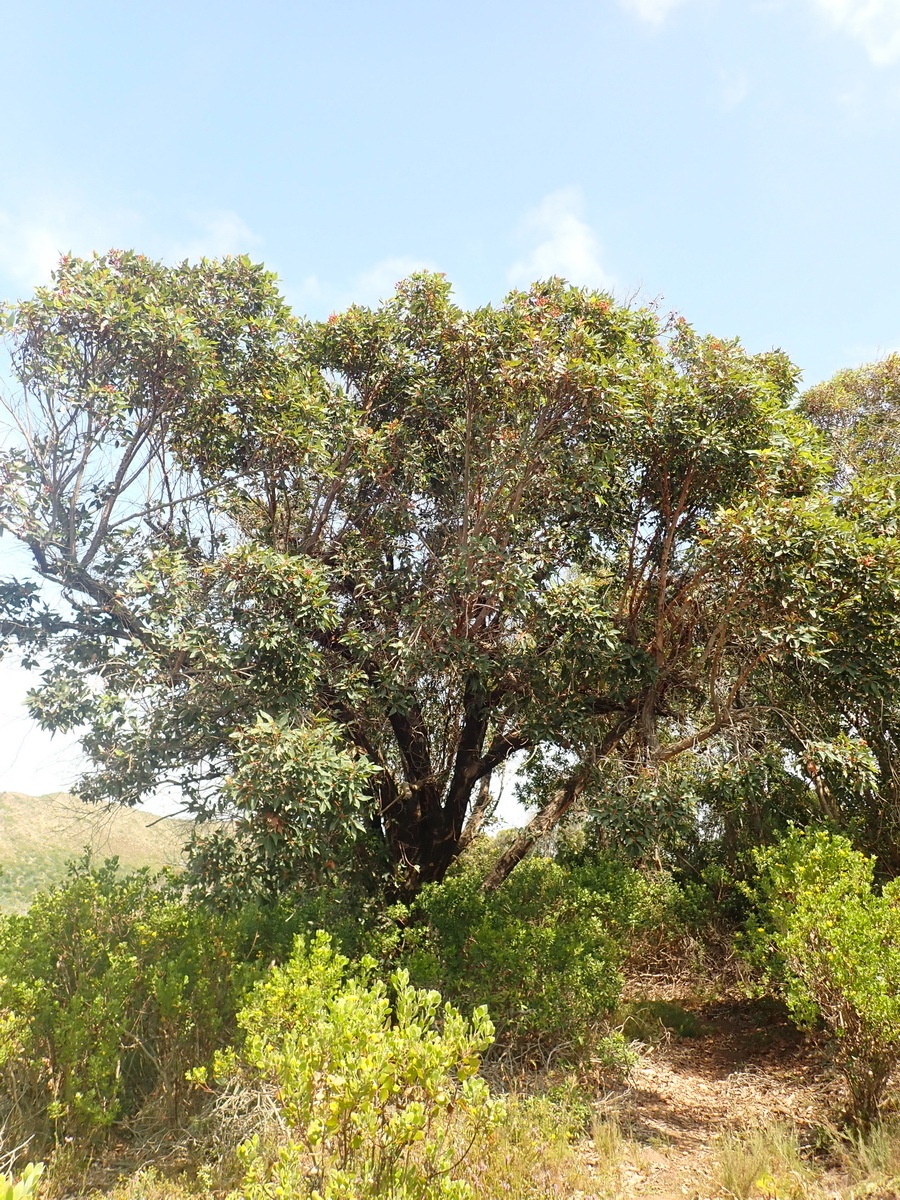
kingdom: Plantae
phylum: Tracheophyta
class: Magnoliopsida
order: Myrtales
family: Myrtaceae
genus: Corymbia
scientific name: Corymbia ficifolia
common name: Redflower gum
